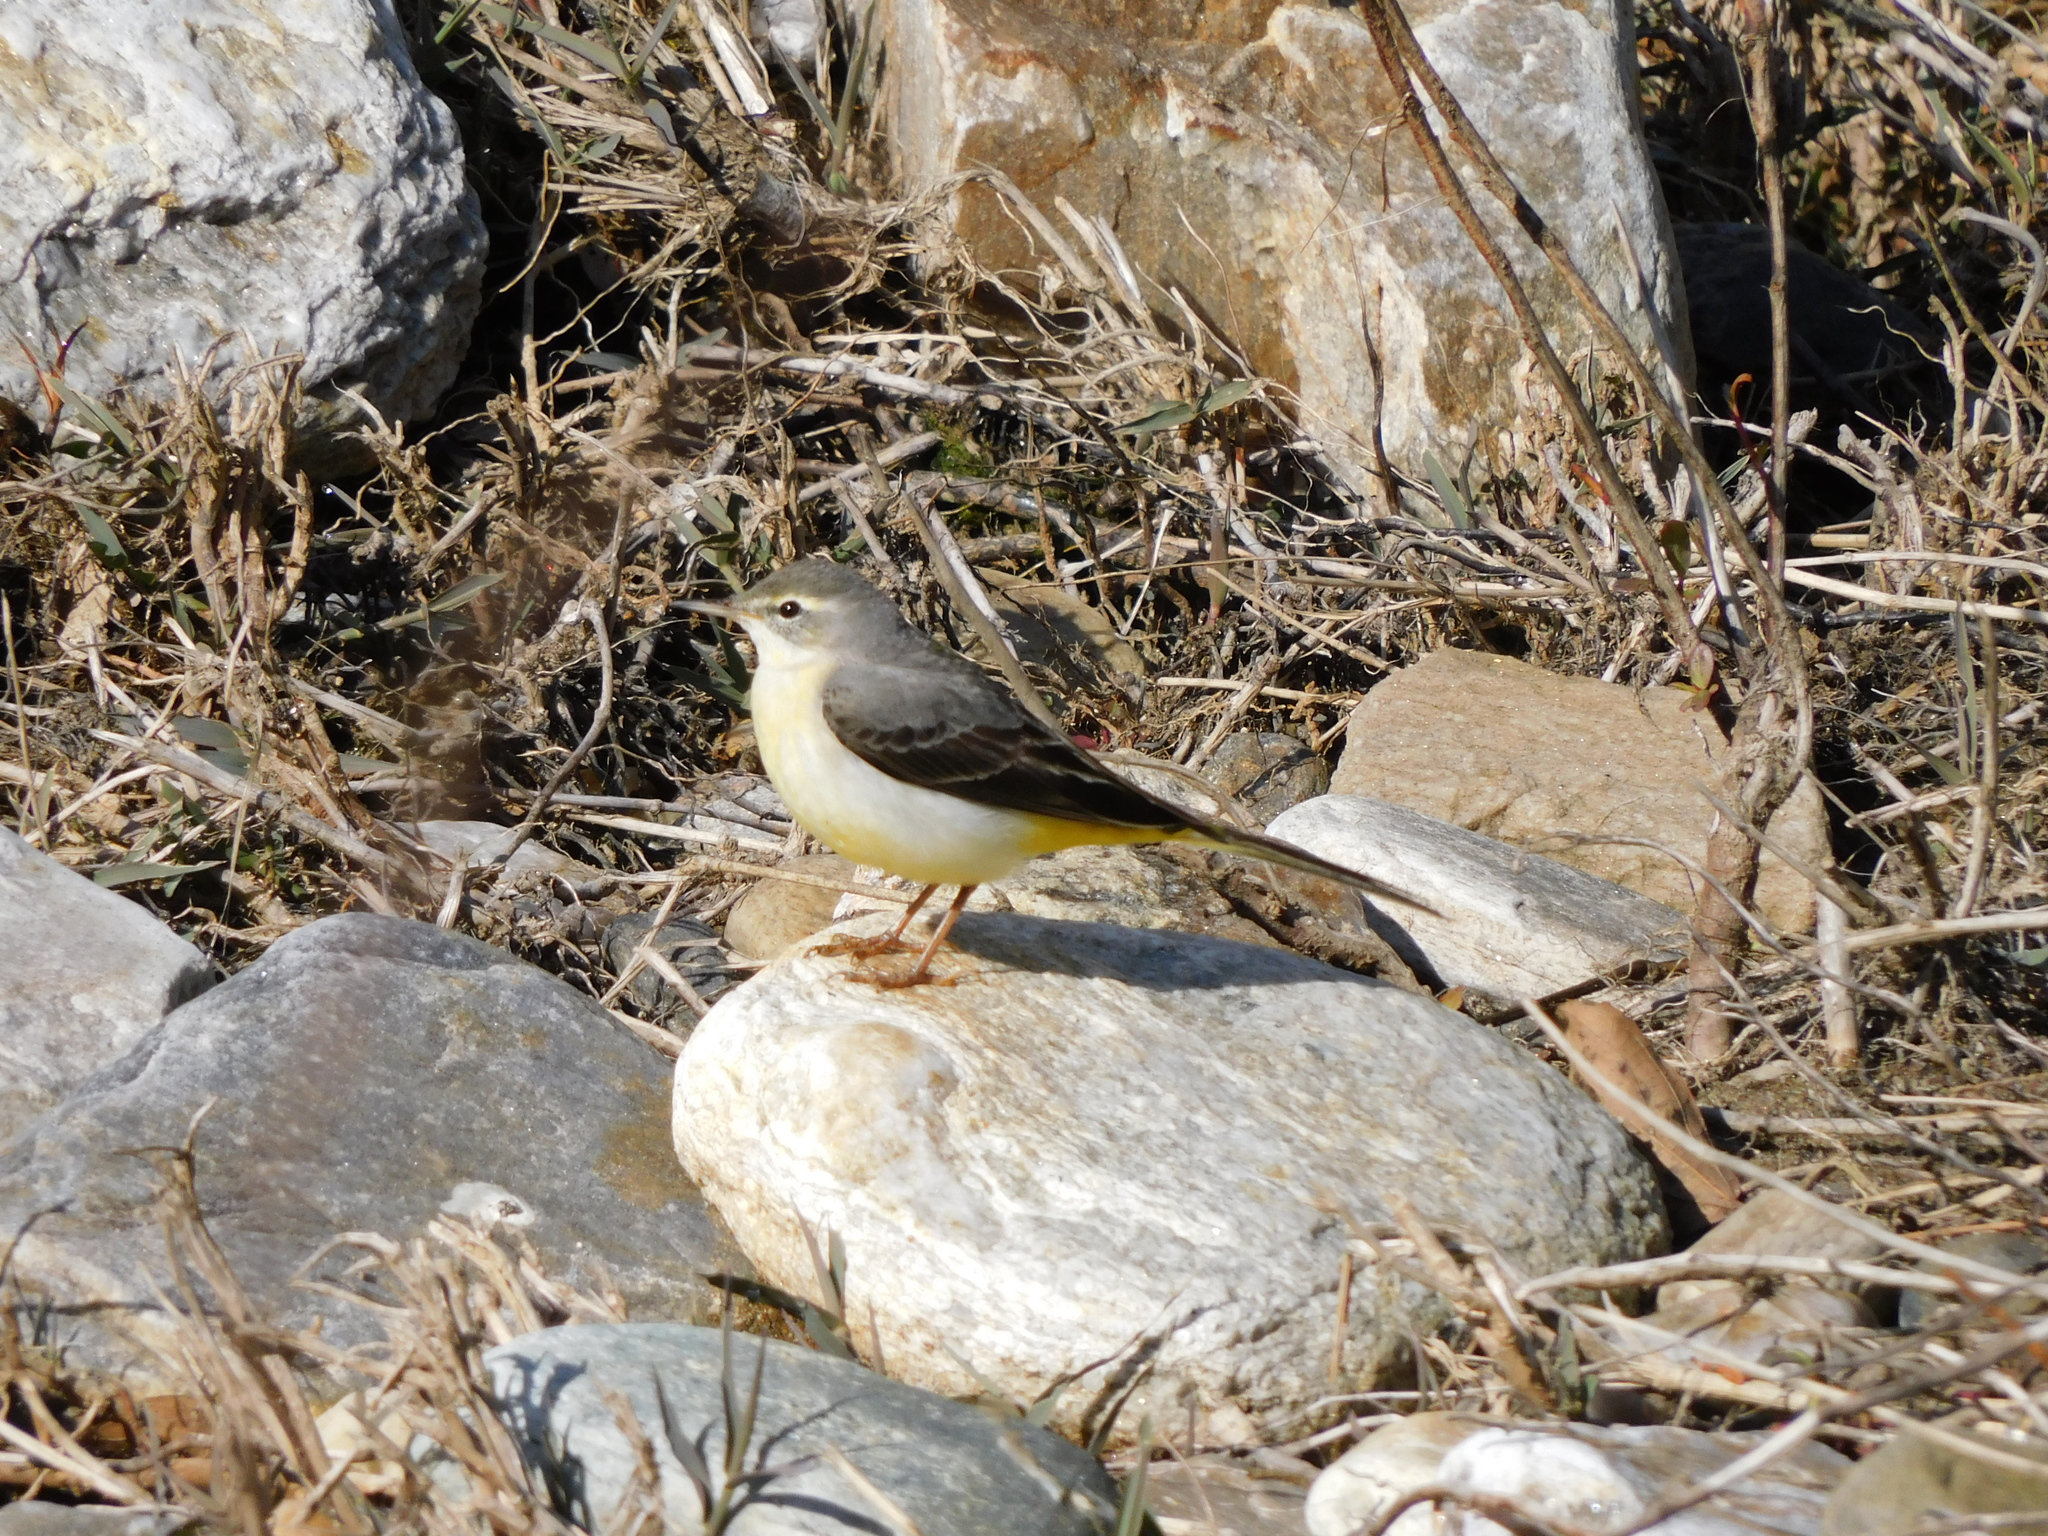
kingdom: Animalia
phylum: Chordata
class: Aves
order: Passeriformes
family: Motacillidae
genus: Motacilla
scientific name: Motacilla cinerea
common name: Grey wagtail
